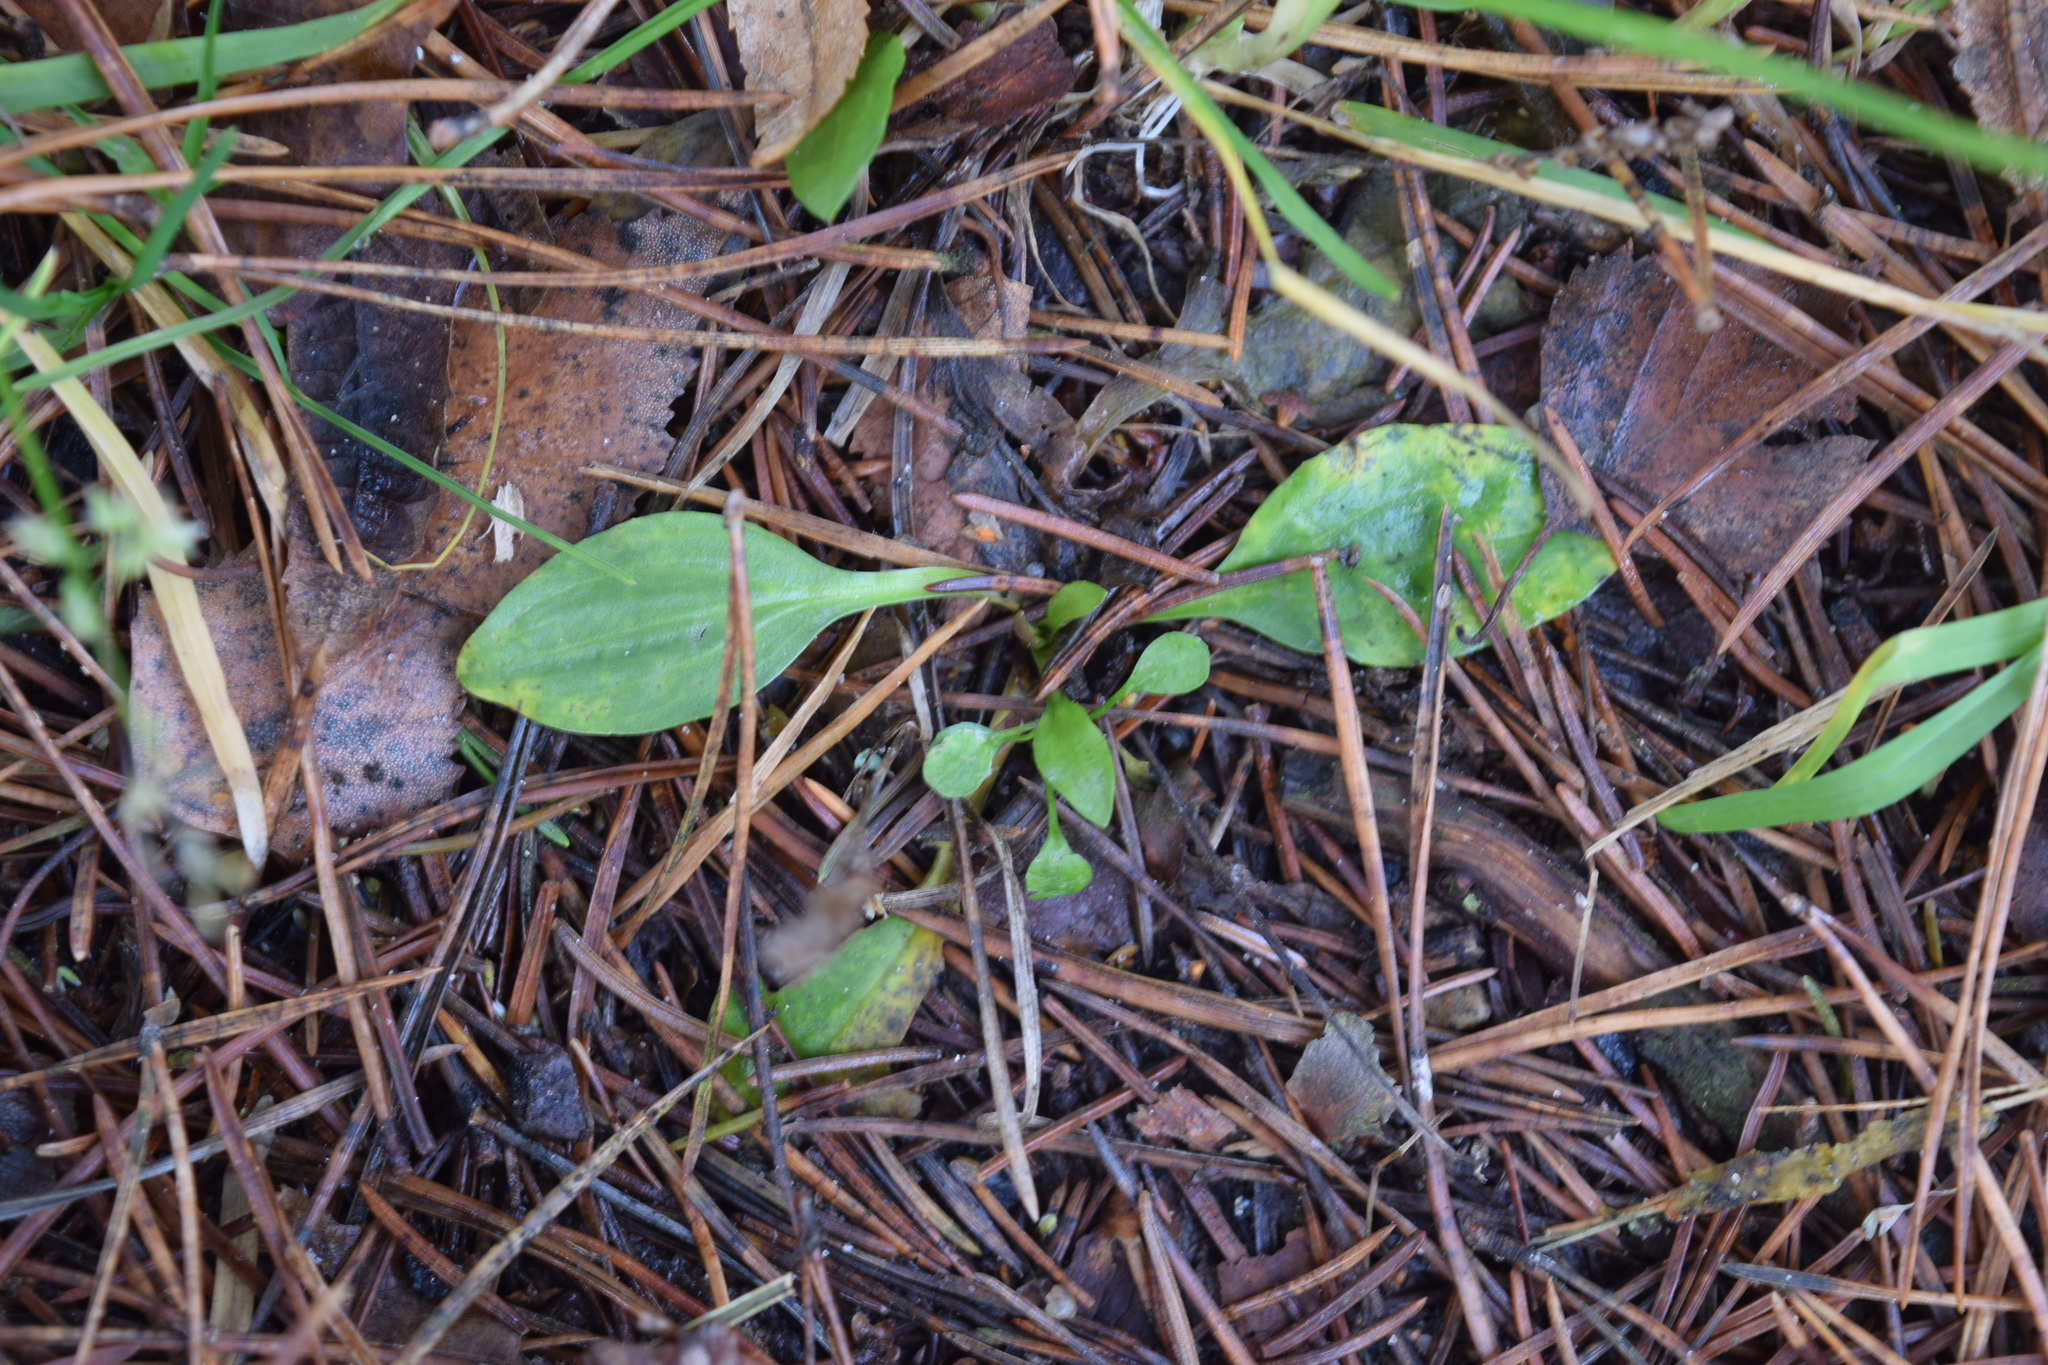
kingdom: Plantae
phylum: Tracheophyta
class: Magnoliopsida
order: Lamiales
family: Plantaginaceae
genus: Plantago
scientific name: Plantago major
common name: Common plantain
